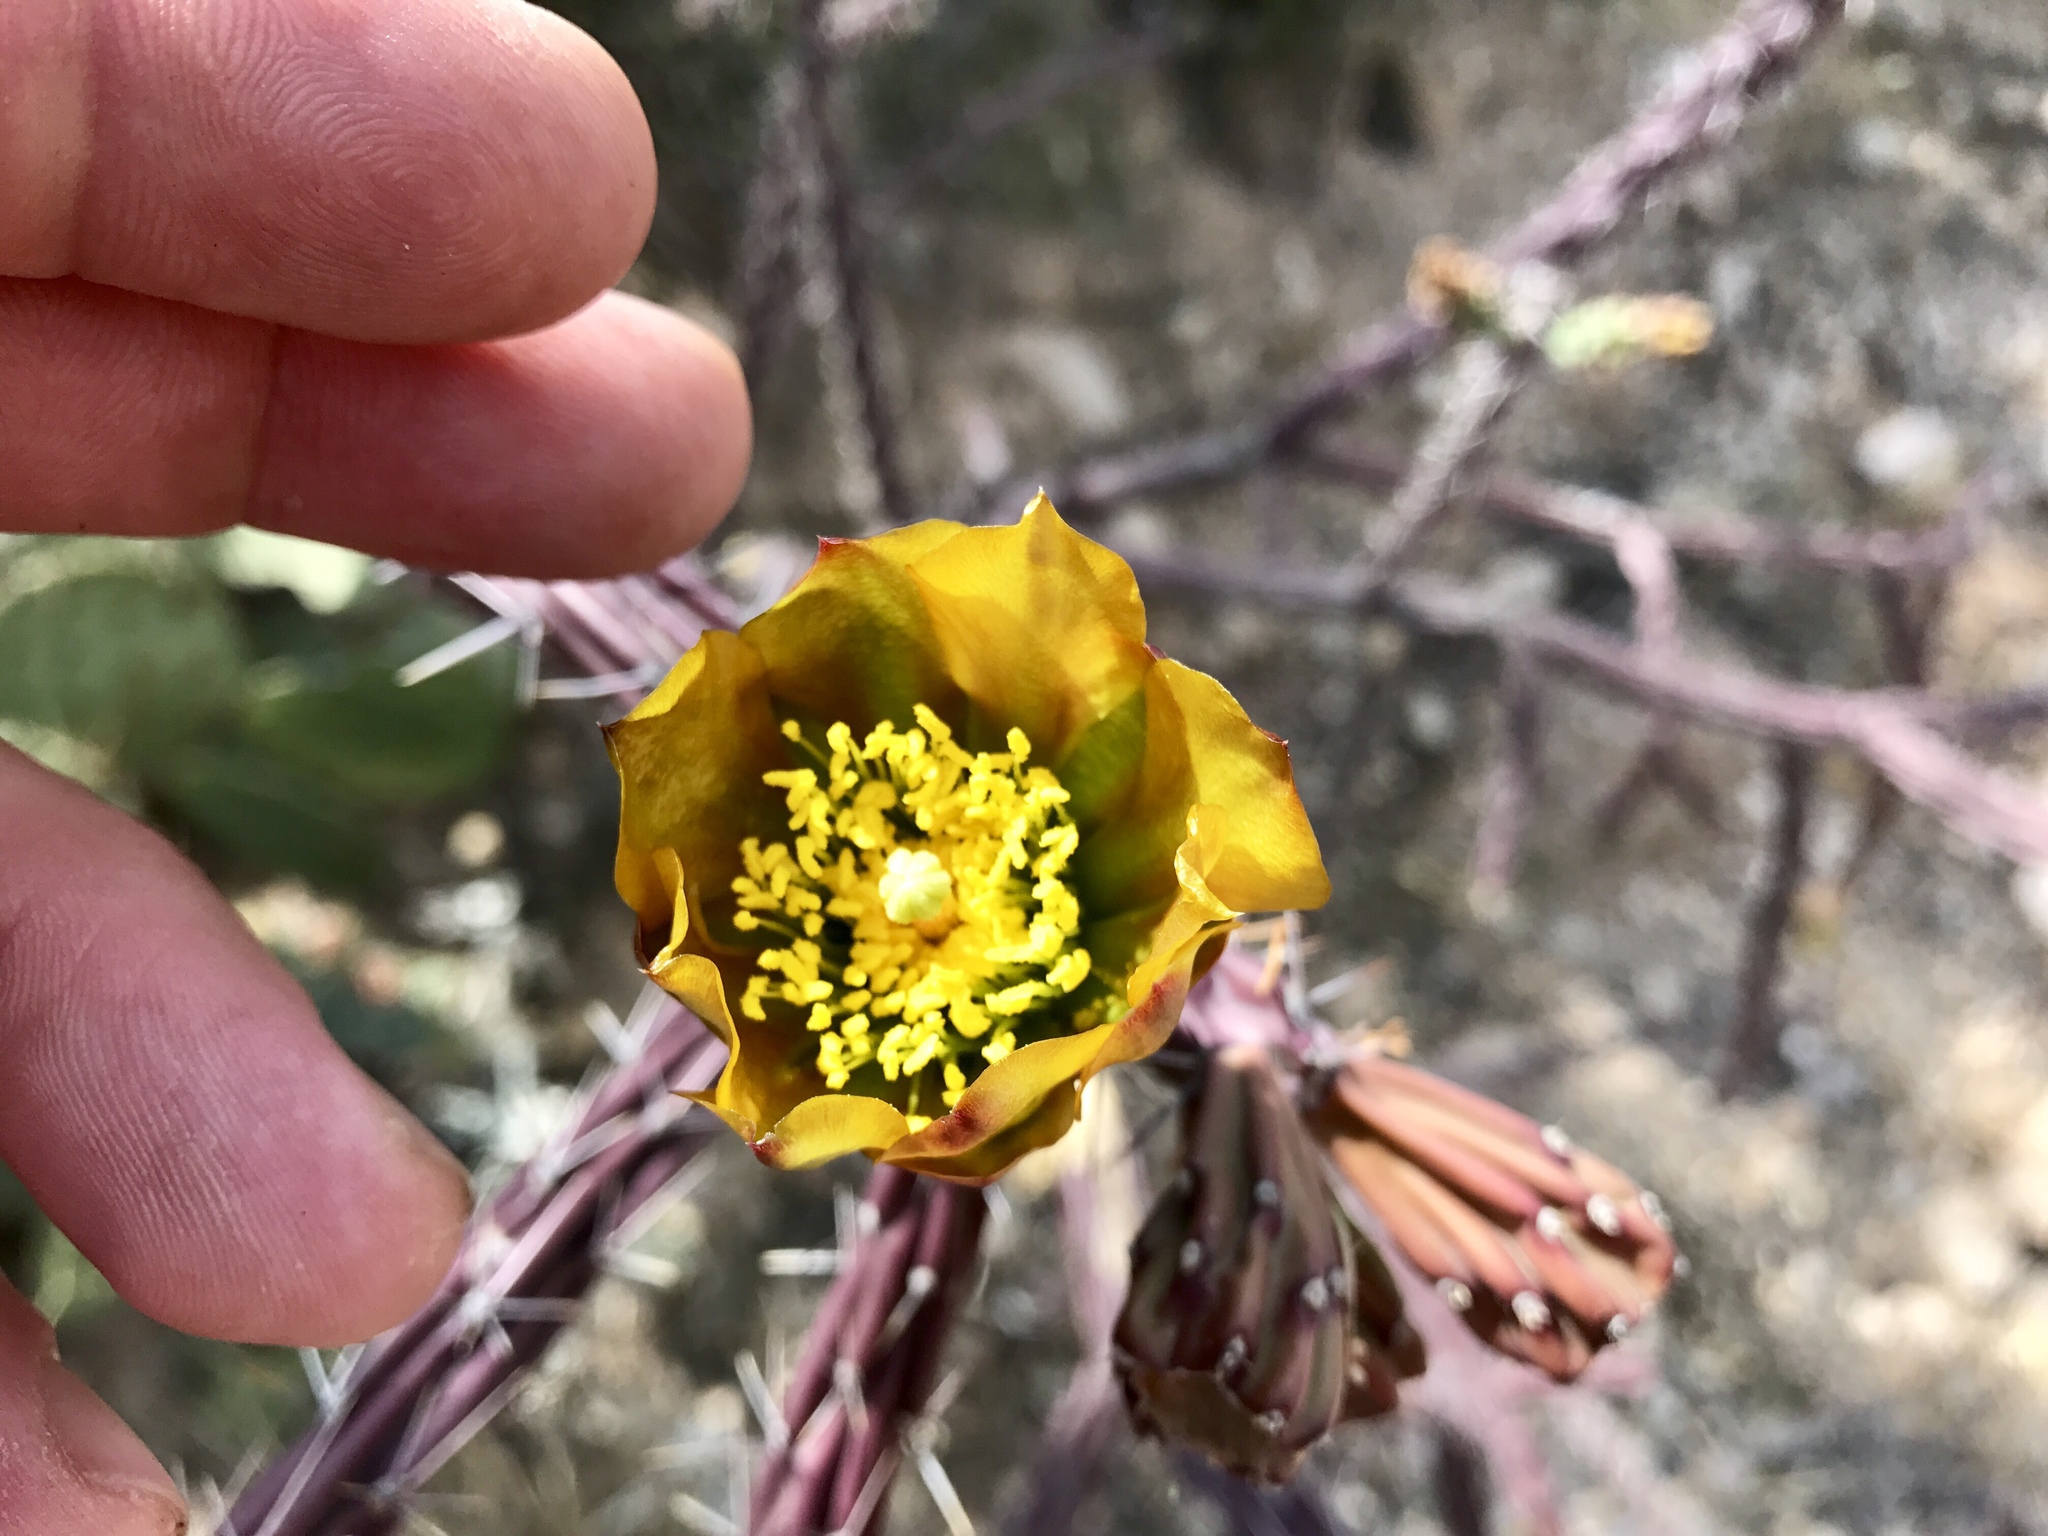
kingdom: Plantae
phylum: Tracheophyta
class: Magnoliopsida
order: Caryophyllales
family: Cactaceae
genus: Cylindropuntia
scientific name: Cylindropuntia thurberi
